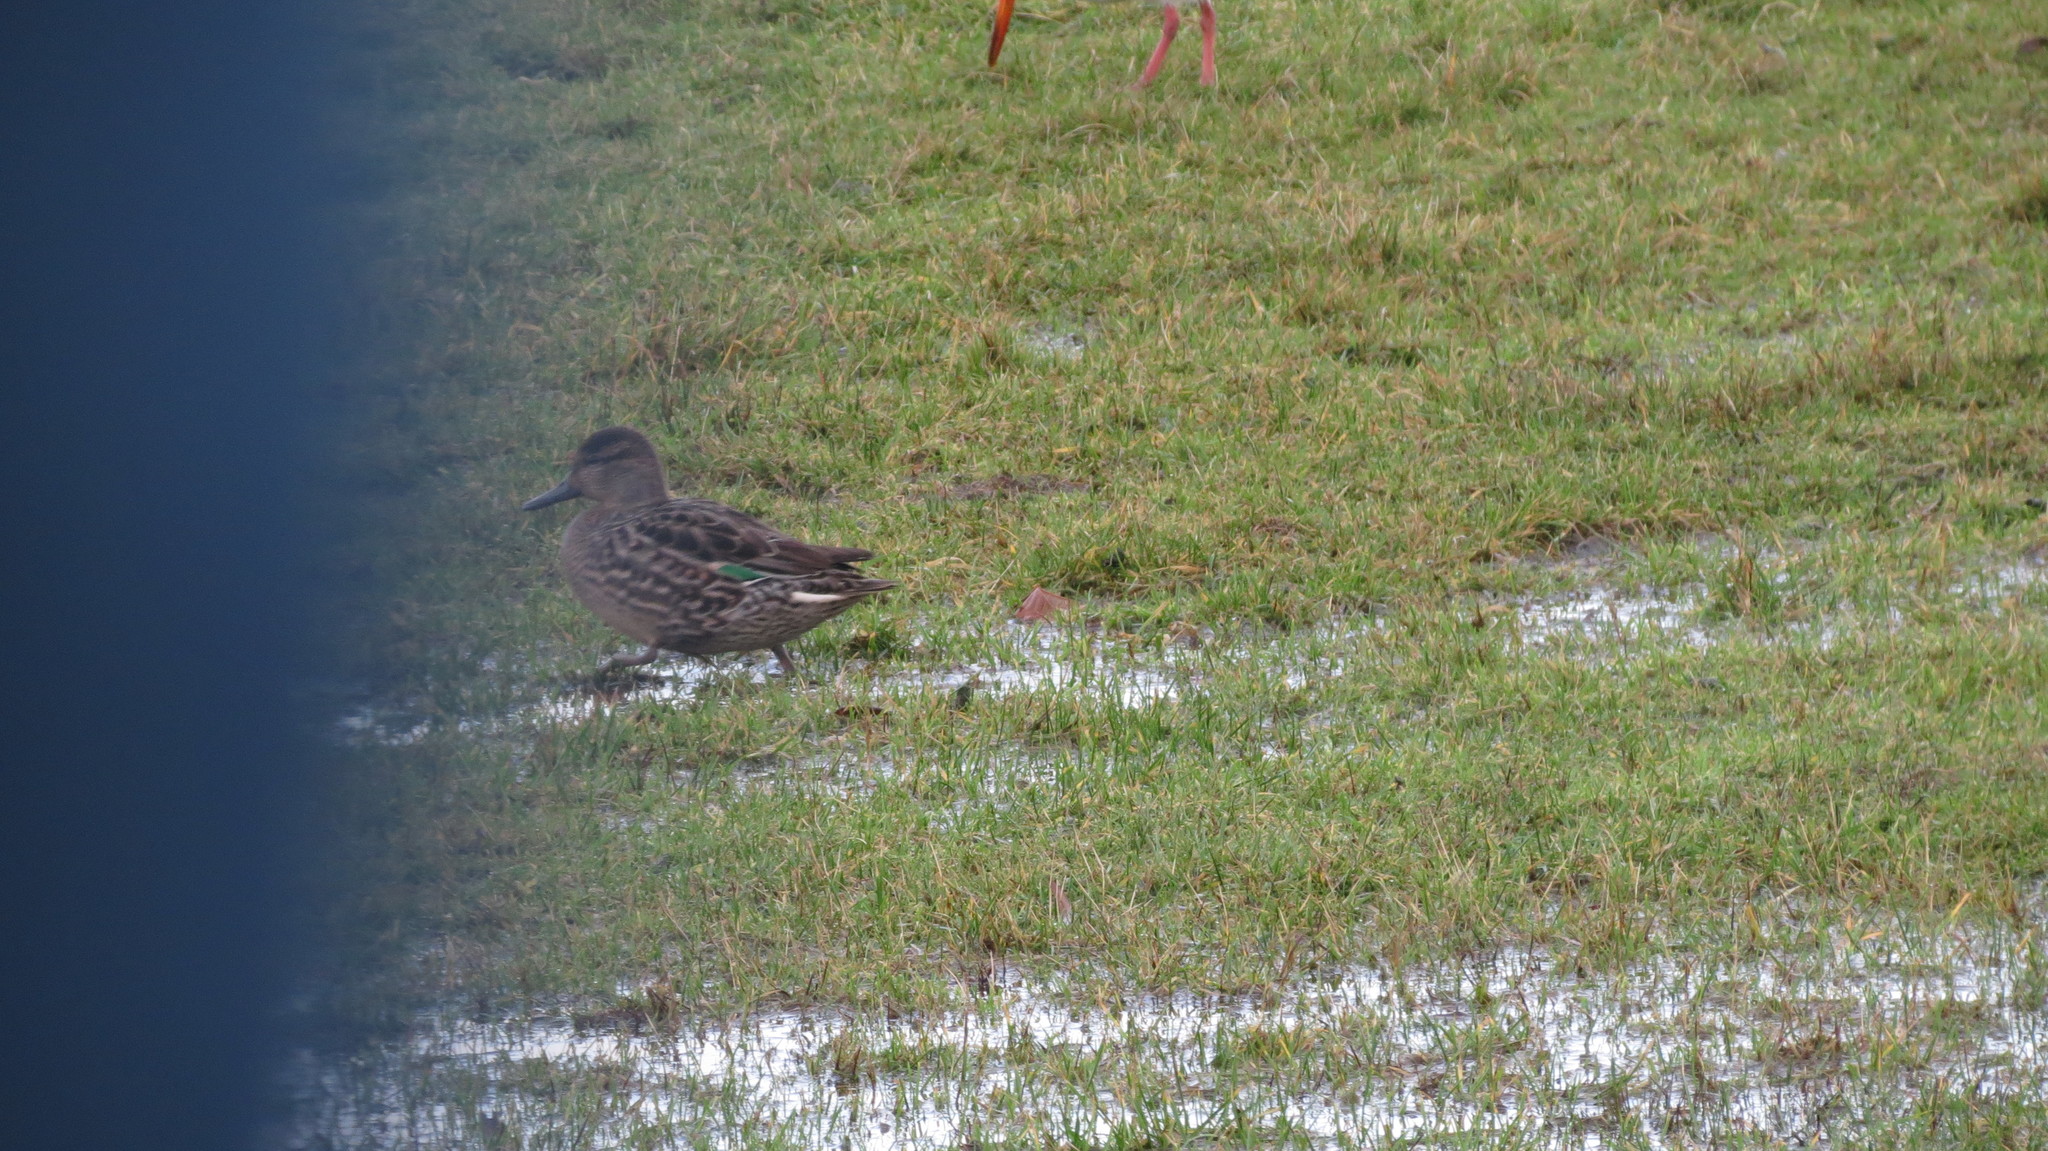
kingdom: Animalia
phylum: Chordata
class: Aves
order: Anseriformes
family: Anatidae
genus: Anas
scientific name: Anas crecca
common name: Eurasian teal
